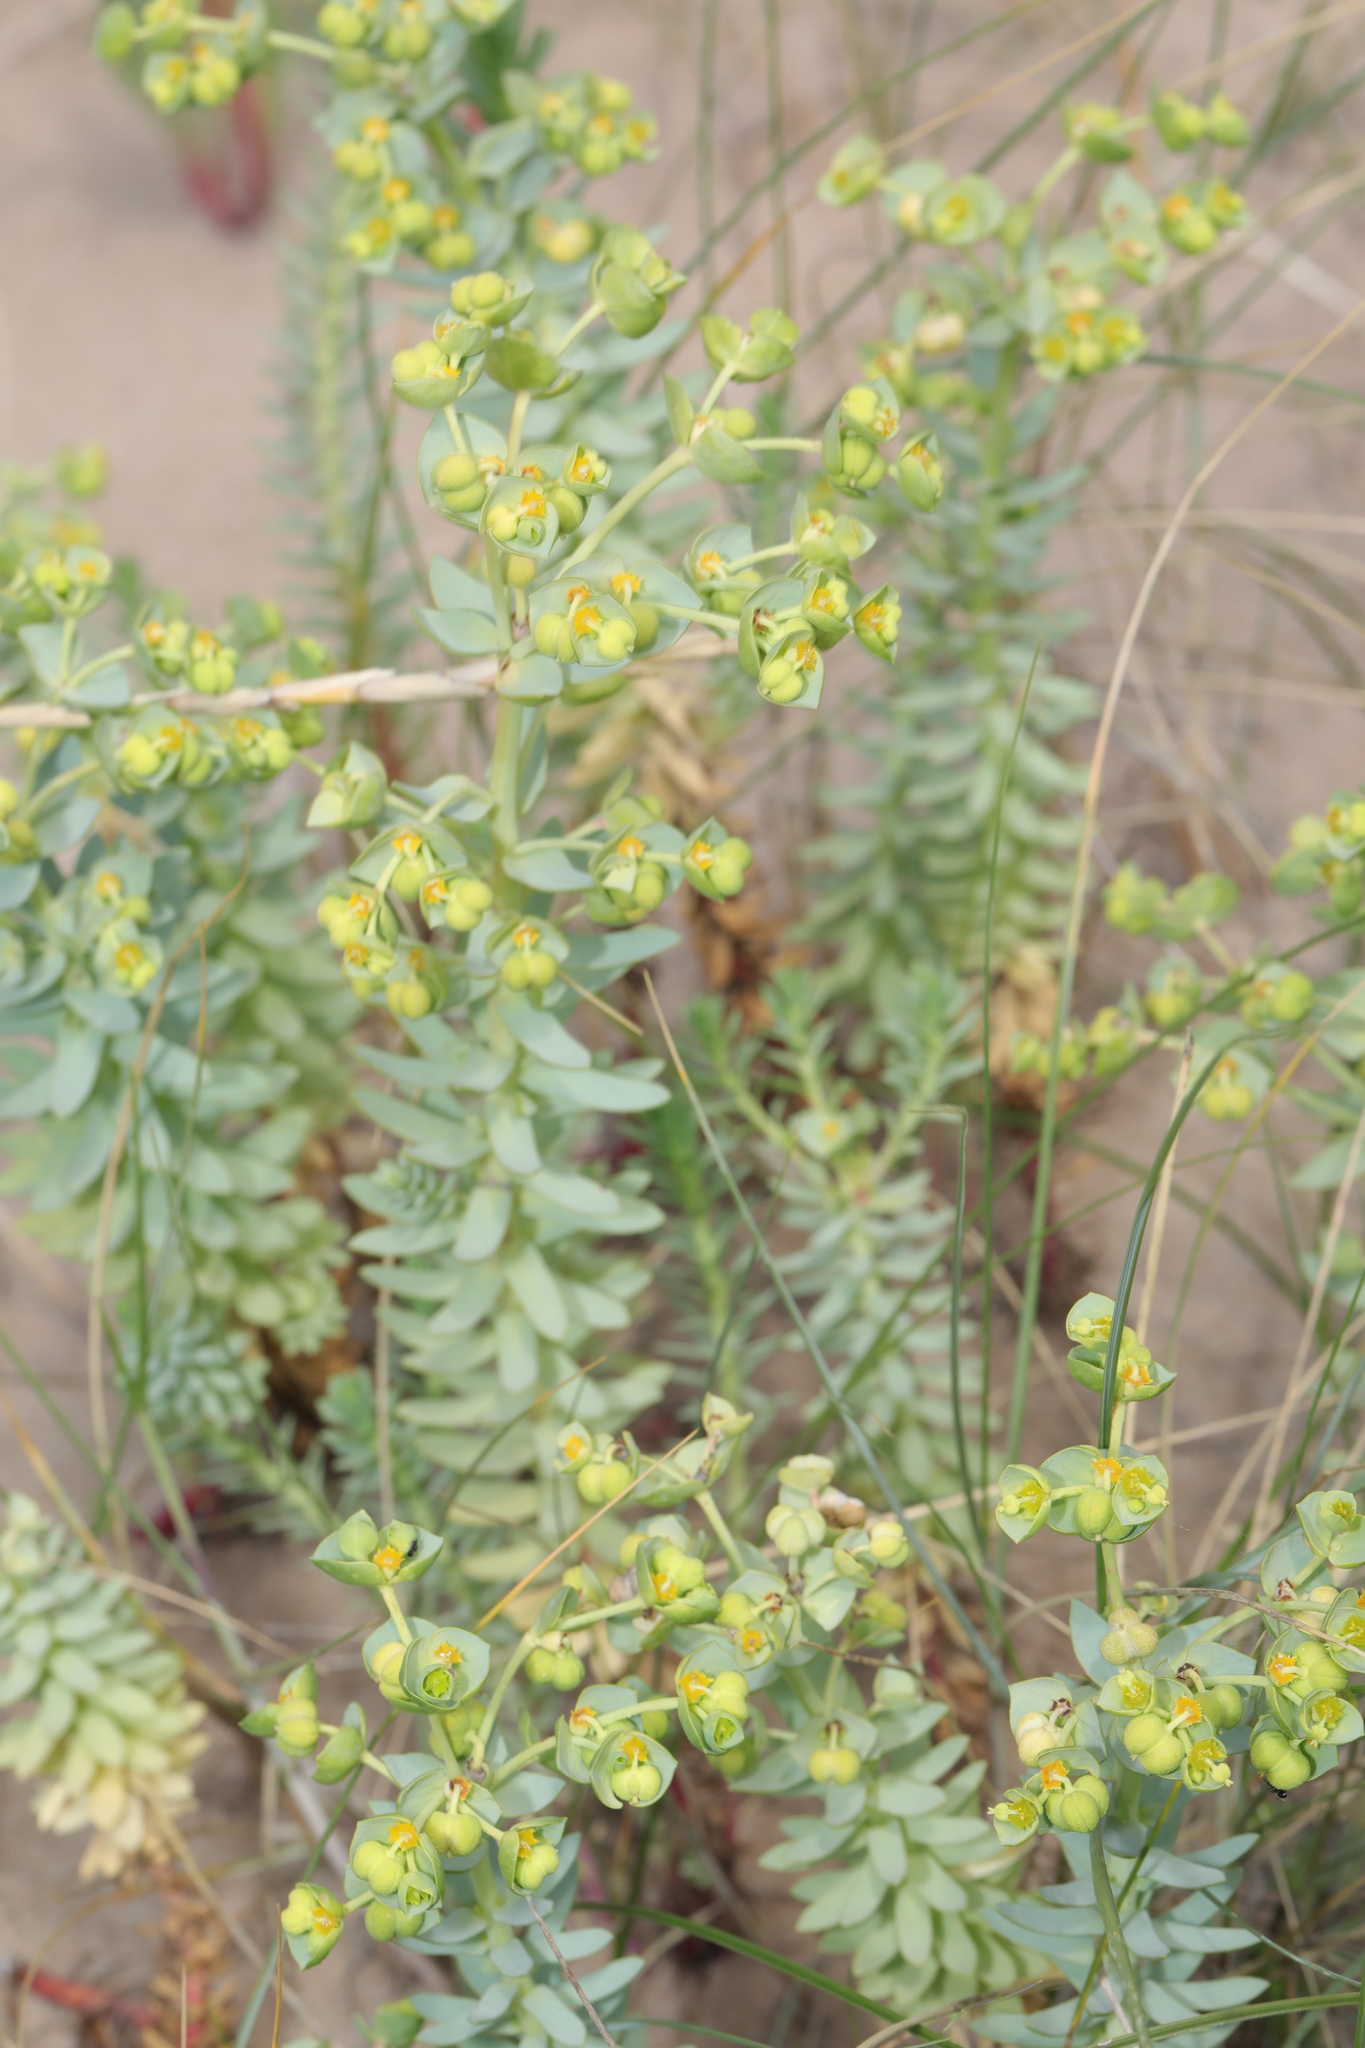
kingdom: Plantae
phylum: Tracheophyta
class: Magnoliopsida
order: Malpighiales
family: Euphorbiaceae
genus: Euphorbia
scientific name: Euphorbia paralias
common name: Sea spurge
